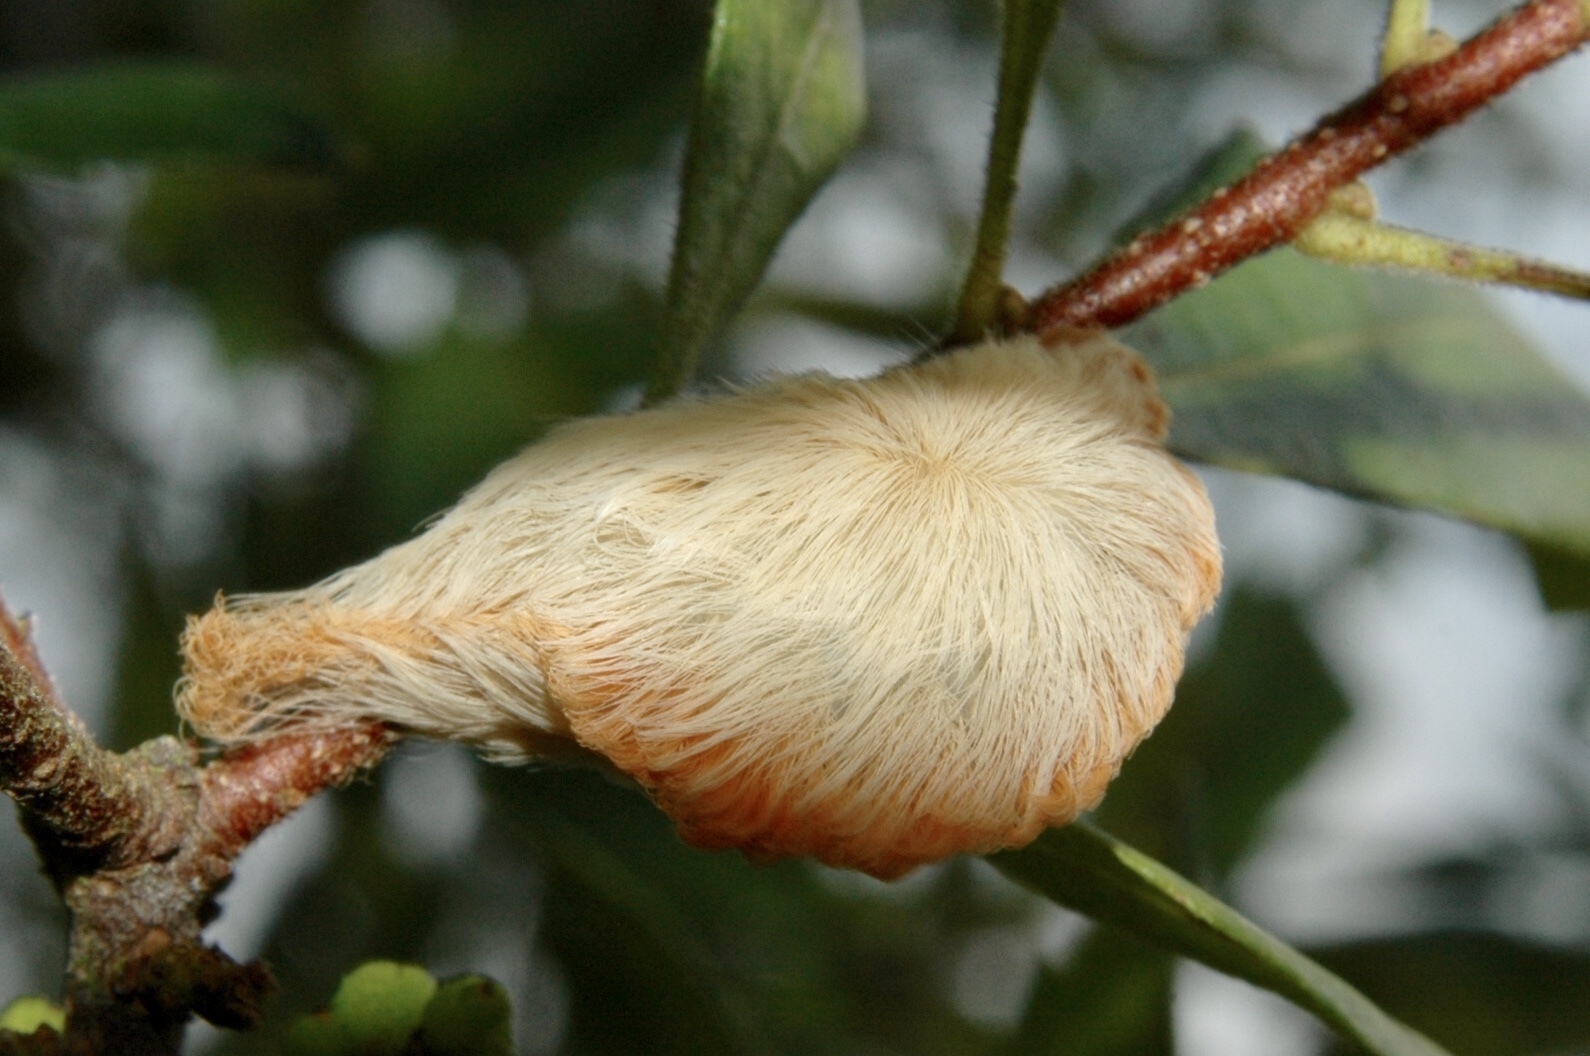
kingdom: Animalia
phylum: Arthropoda
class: Insecta
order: Lepidoptera
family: Megalopygidae
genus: Megalopyge
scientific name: Megalopyge opercularis
